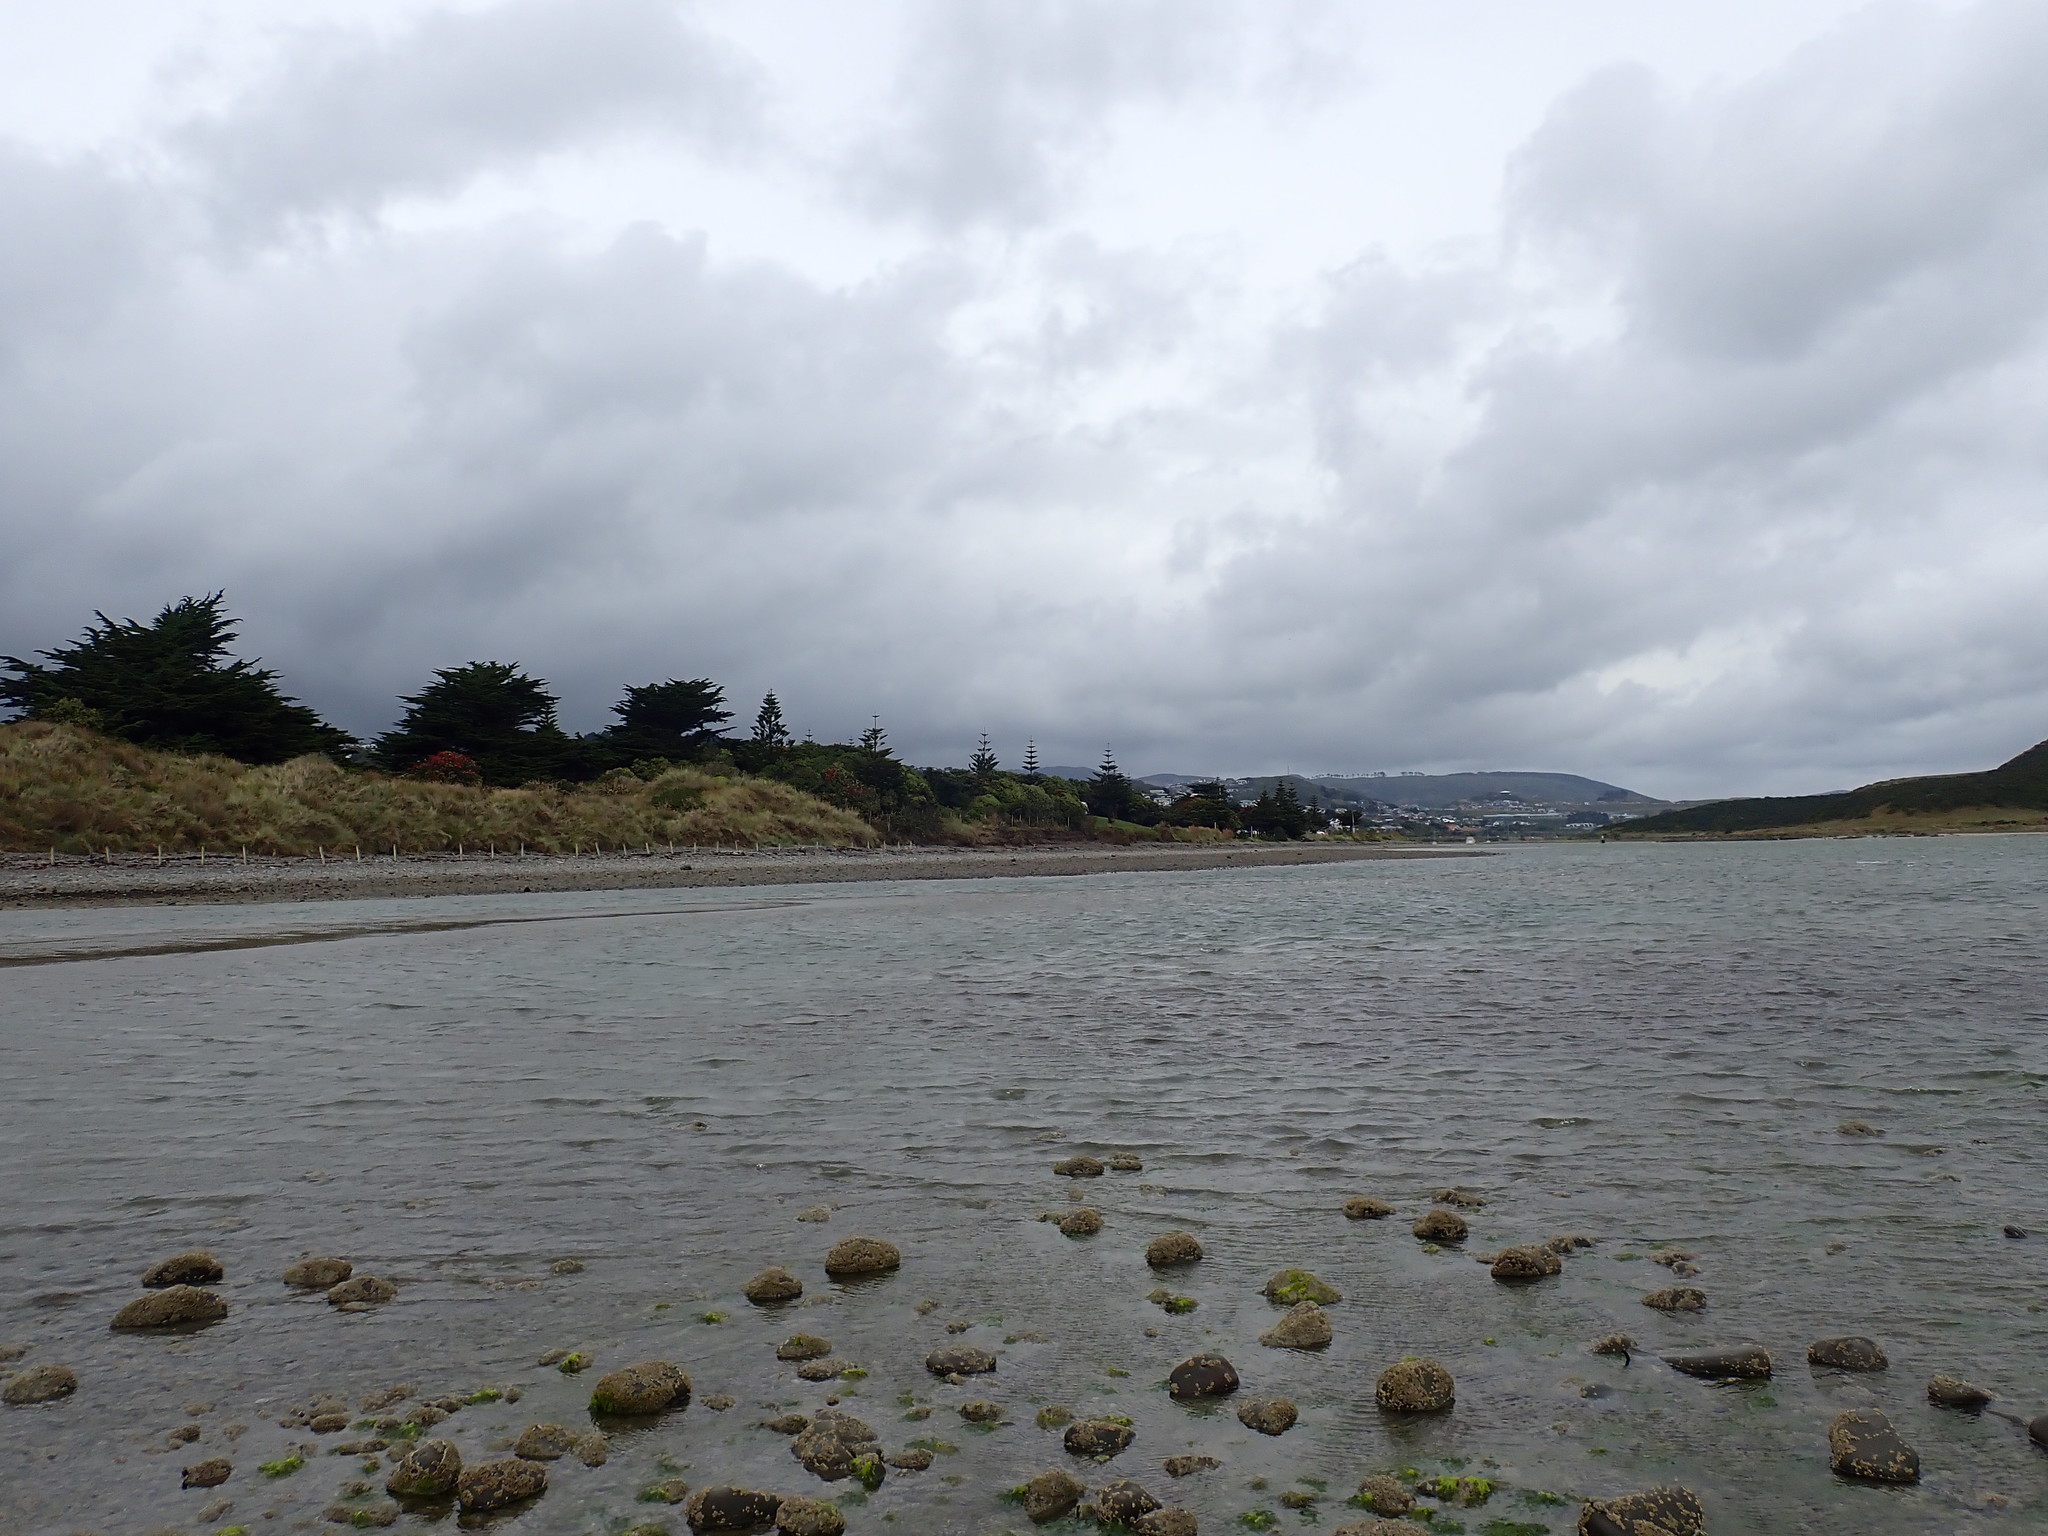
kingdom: Animalia
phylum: Mollusca
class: Gastropoda
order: Trochida
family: Trochidae
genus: Zethalia
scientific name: Zethalia zelandica
